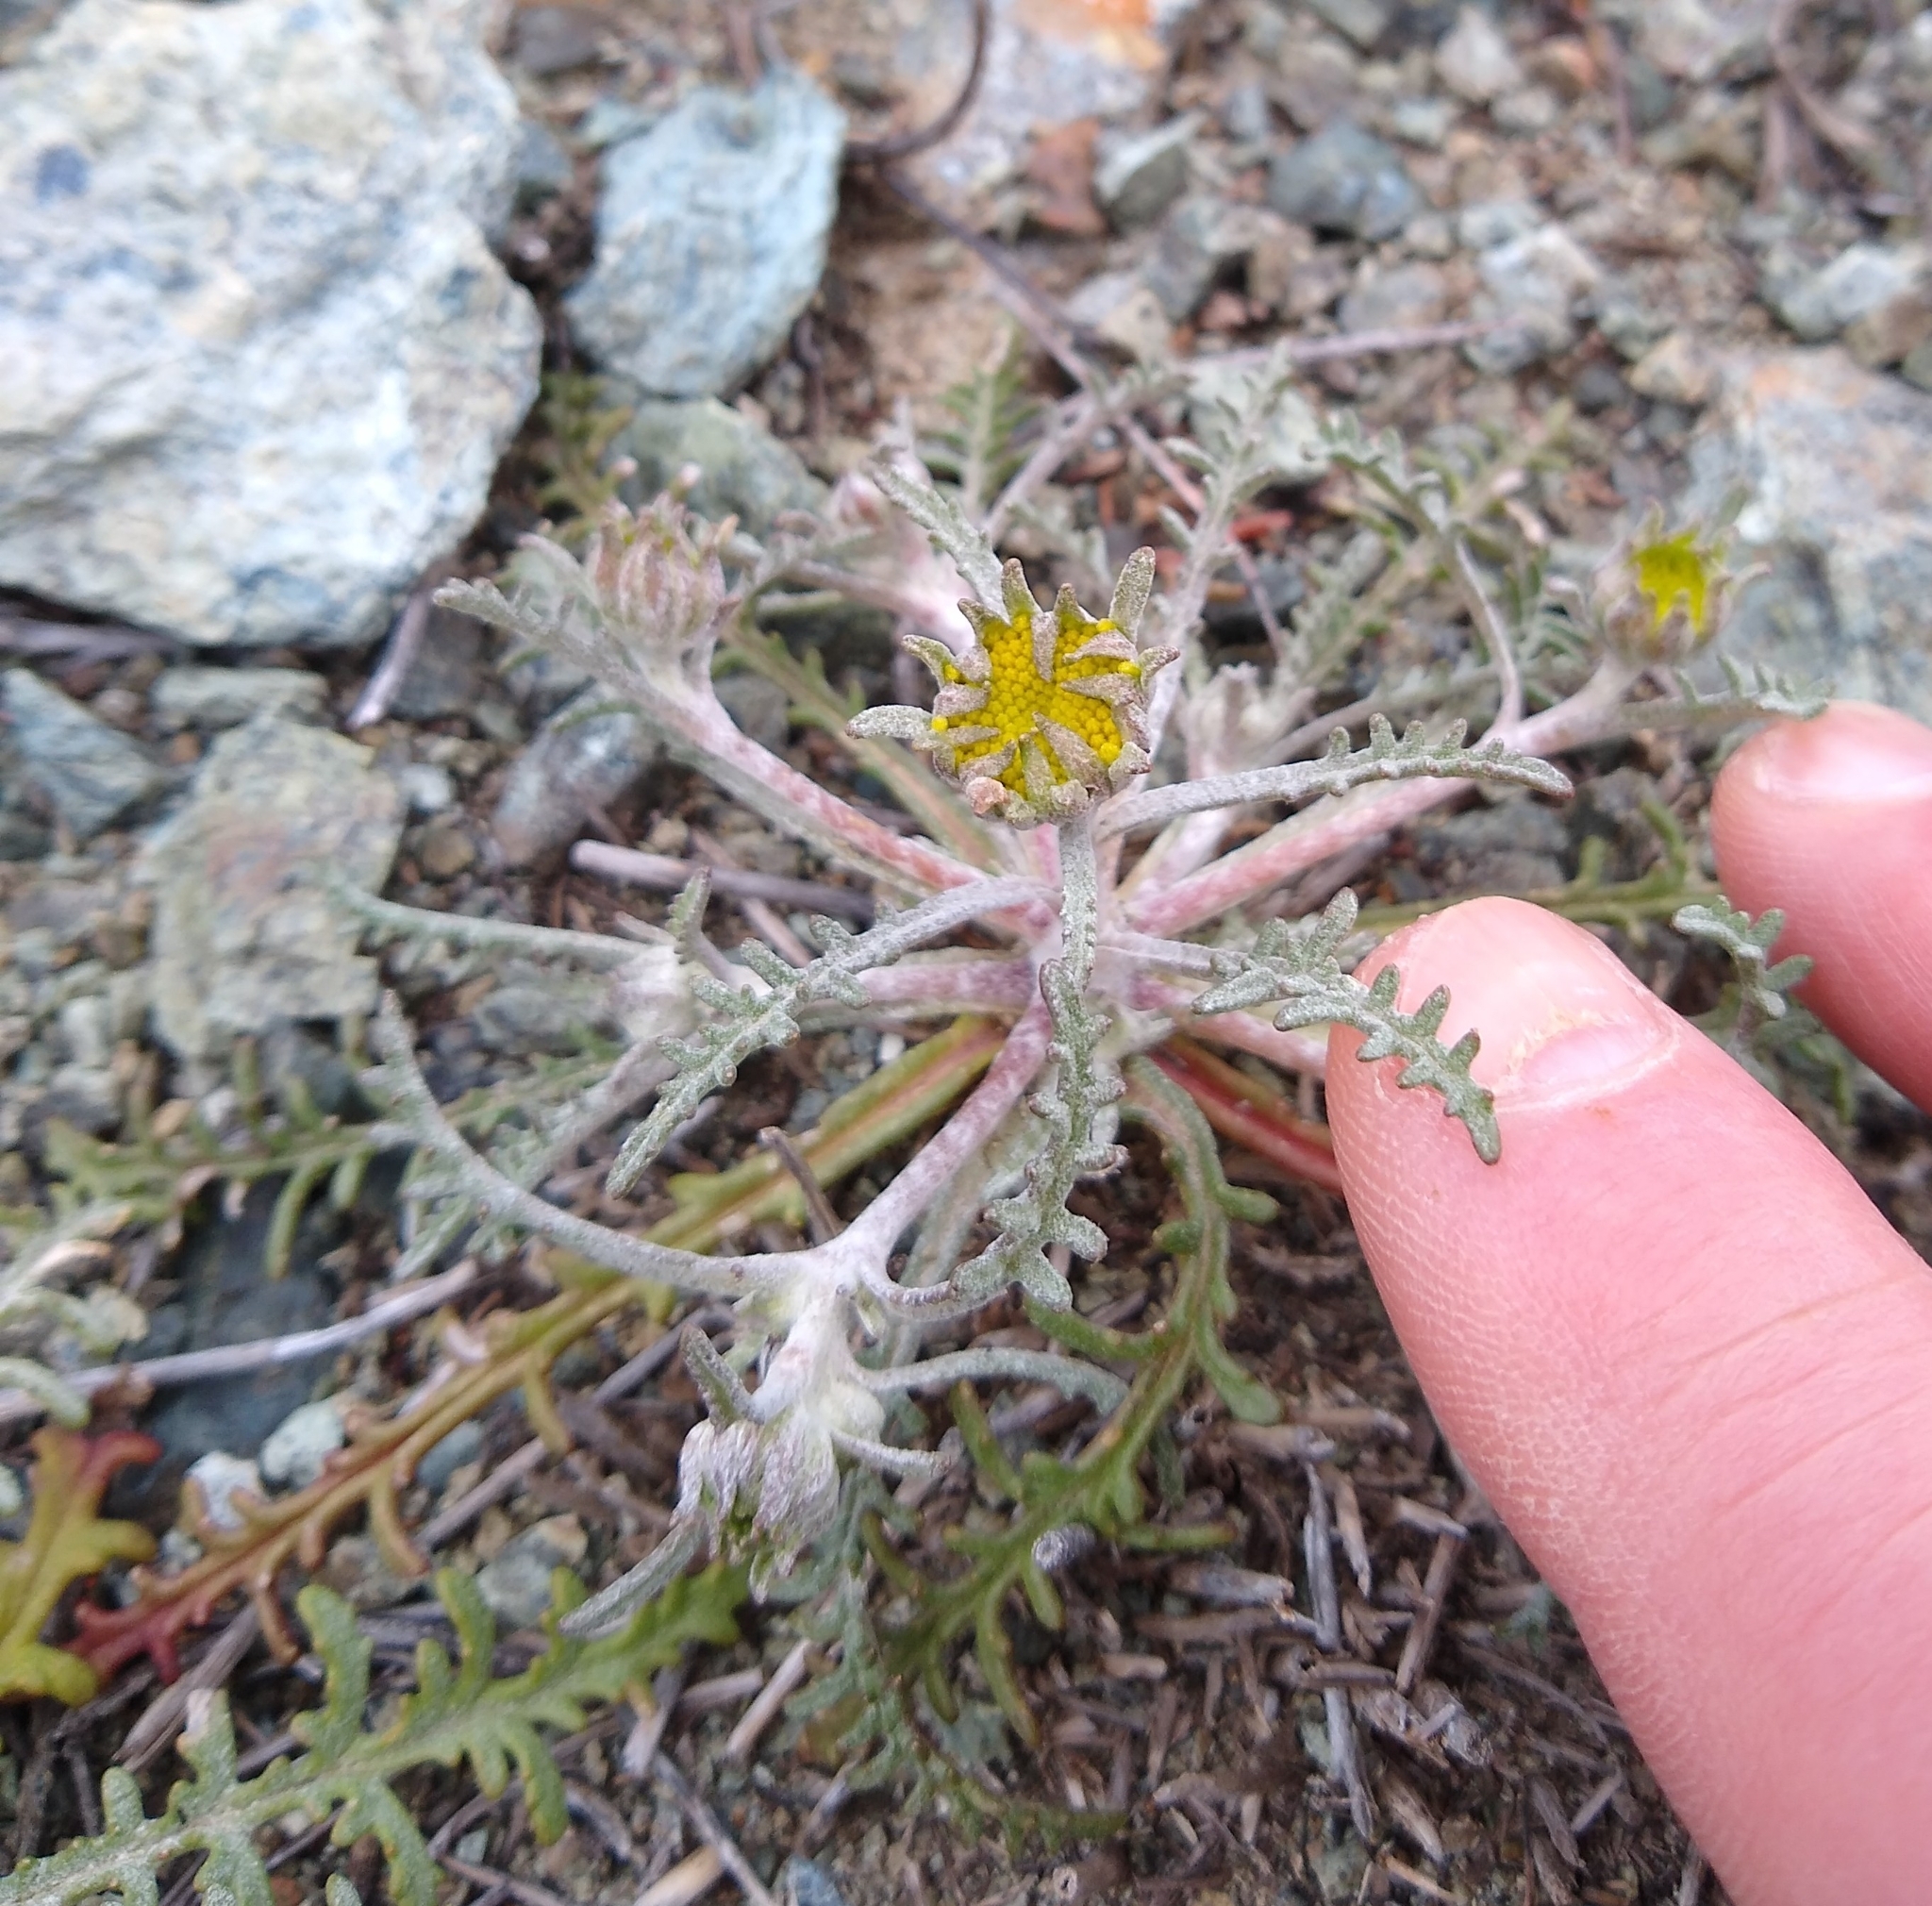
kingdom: Plantae
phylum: Tracheophyta
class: Magnoliopsida
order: Asterales
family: Asteraceae
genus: Chaenactis
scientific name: Chaenactis glabriuscula
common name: Yellow pincushion
